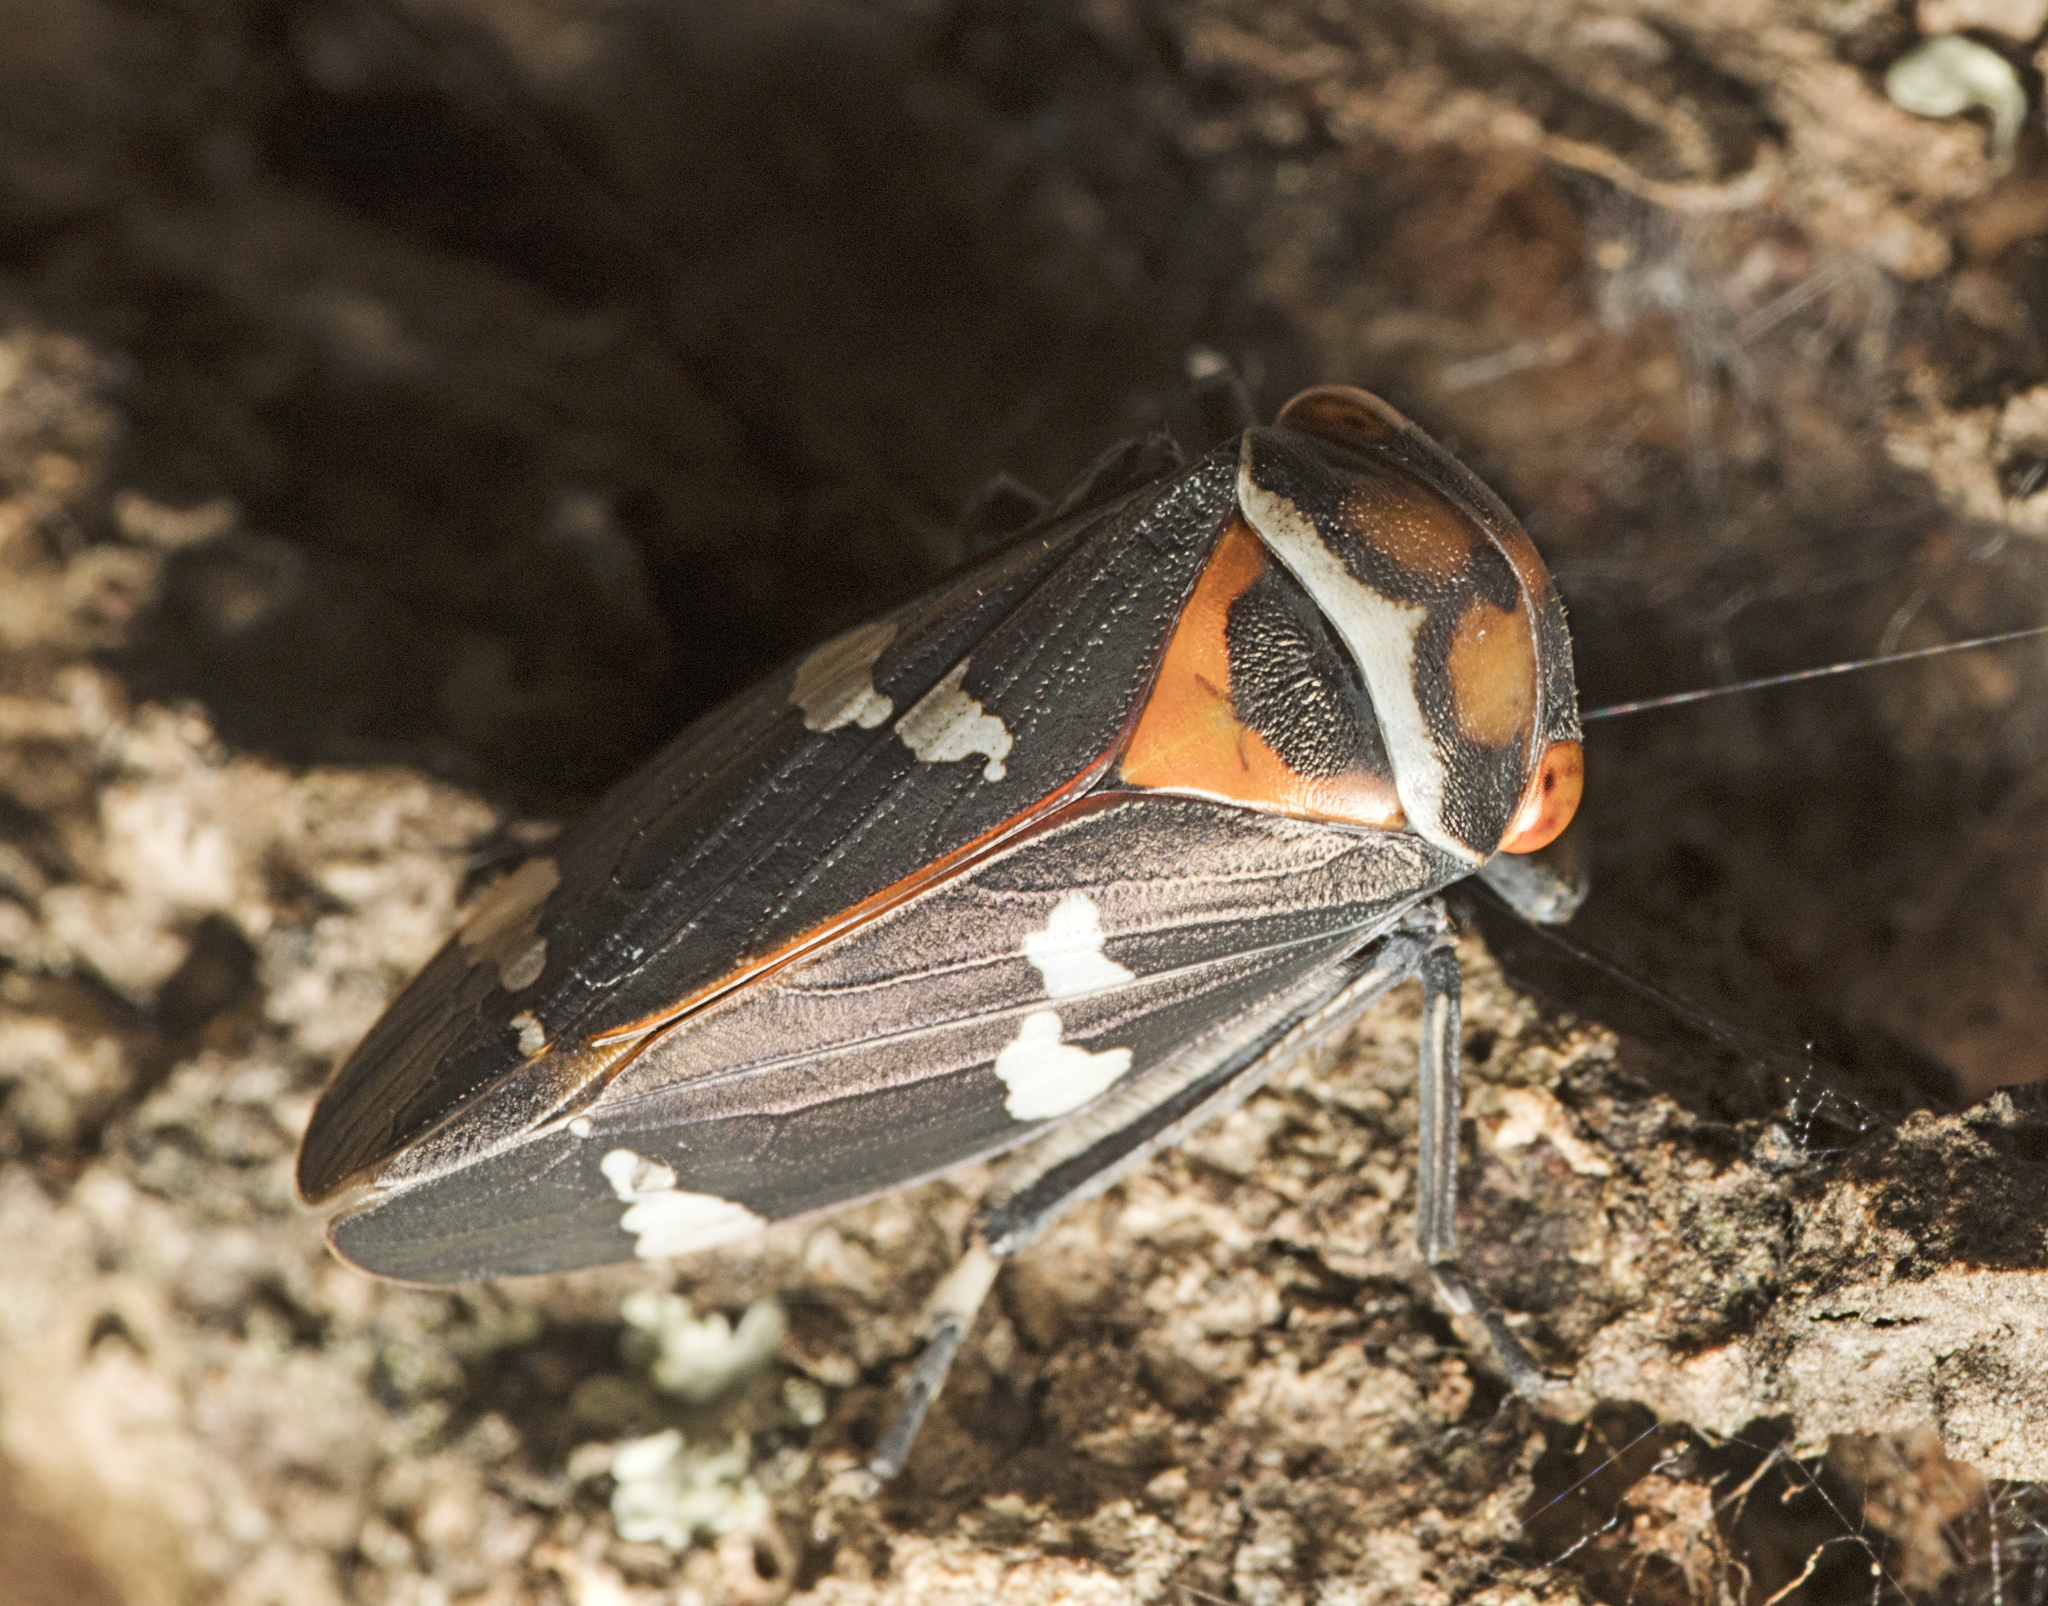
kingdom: Animalia
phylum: Arthropoda
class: Insecta
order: Hemiptera
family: Cicadellidae
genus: Eurymeloides
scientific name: Eurymeloides pulchra
